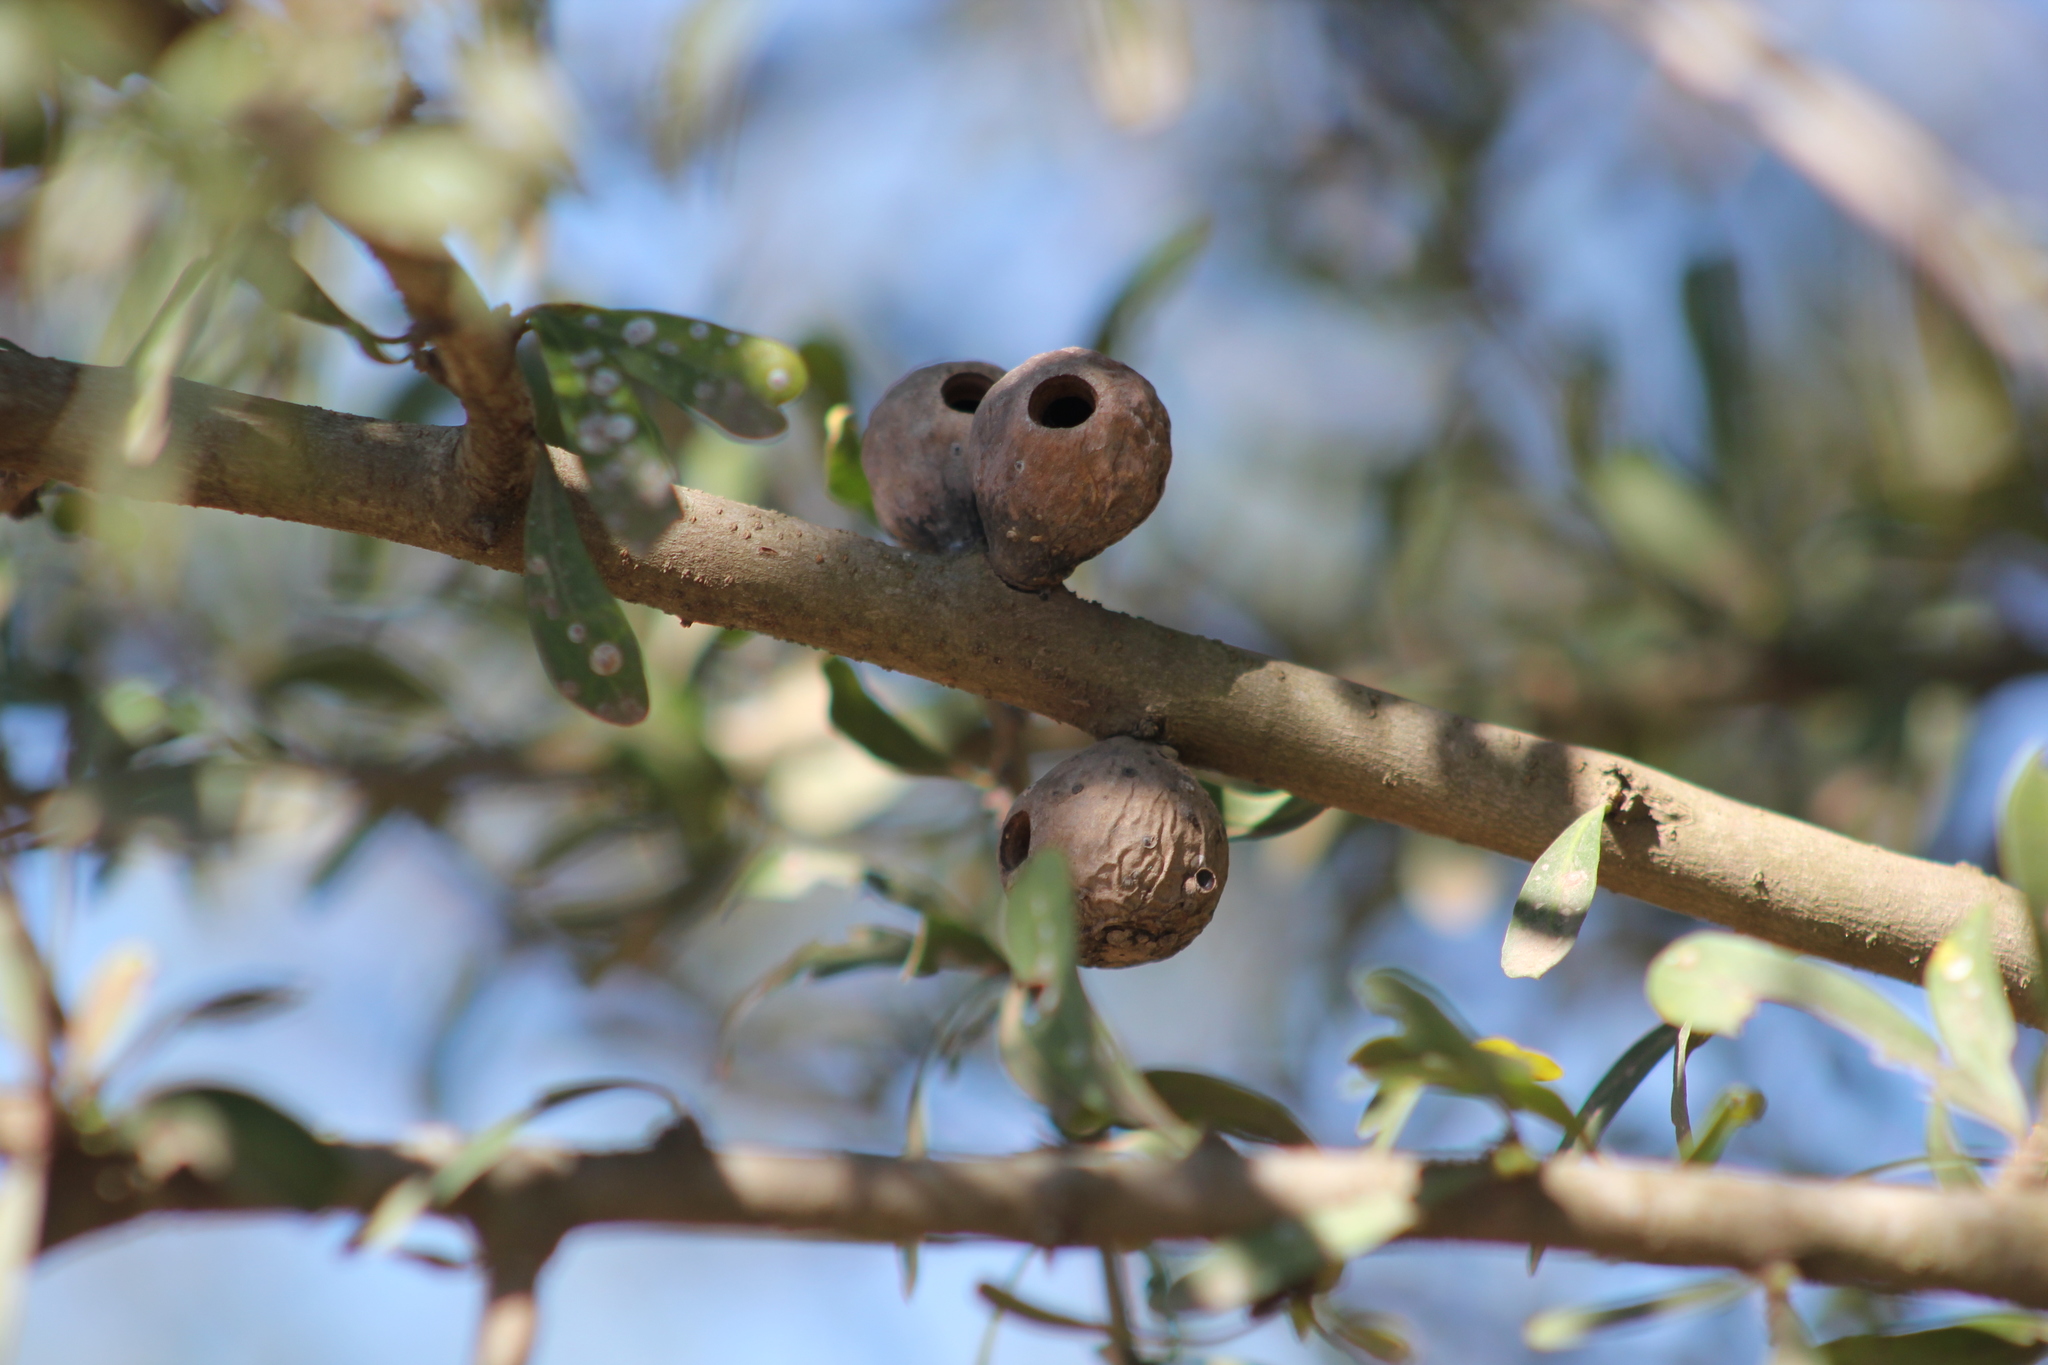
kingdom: Animalia
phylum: Arthropoda
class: Insecta
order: Lepidoptera
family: Cecidosidae
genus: Cecidoses
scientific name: Cecidoses eremita
